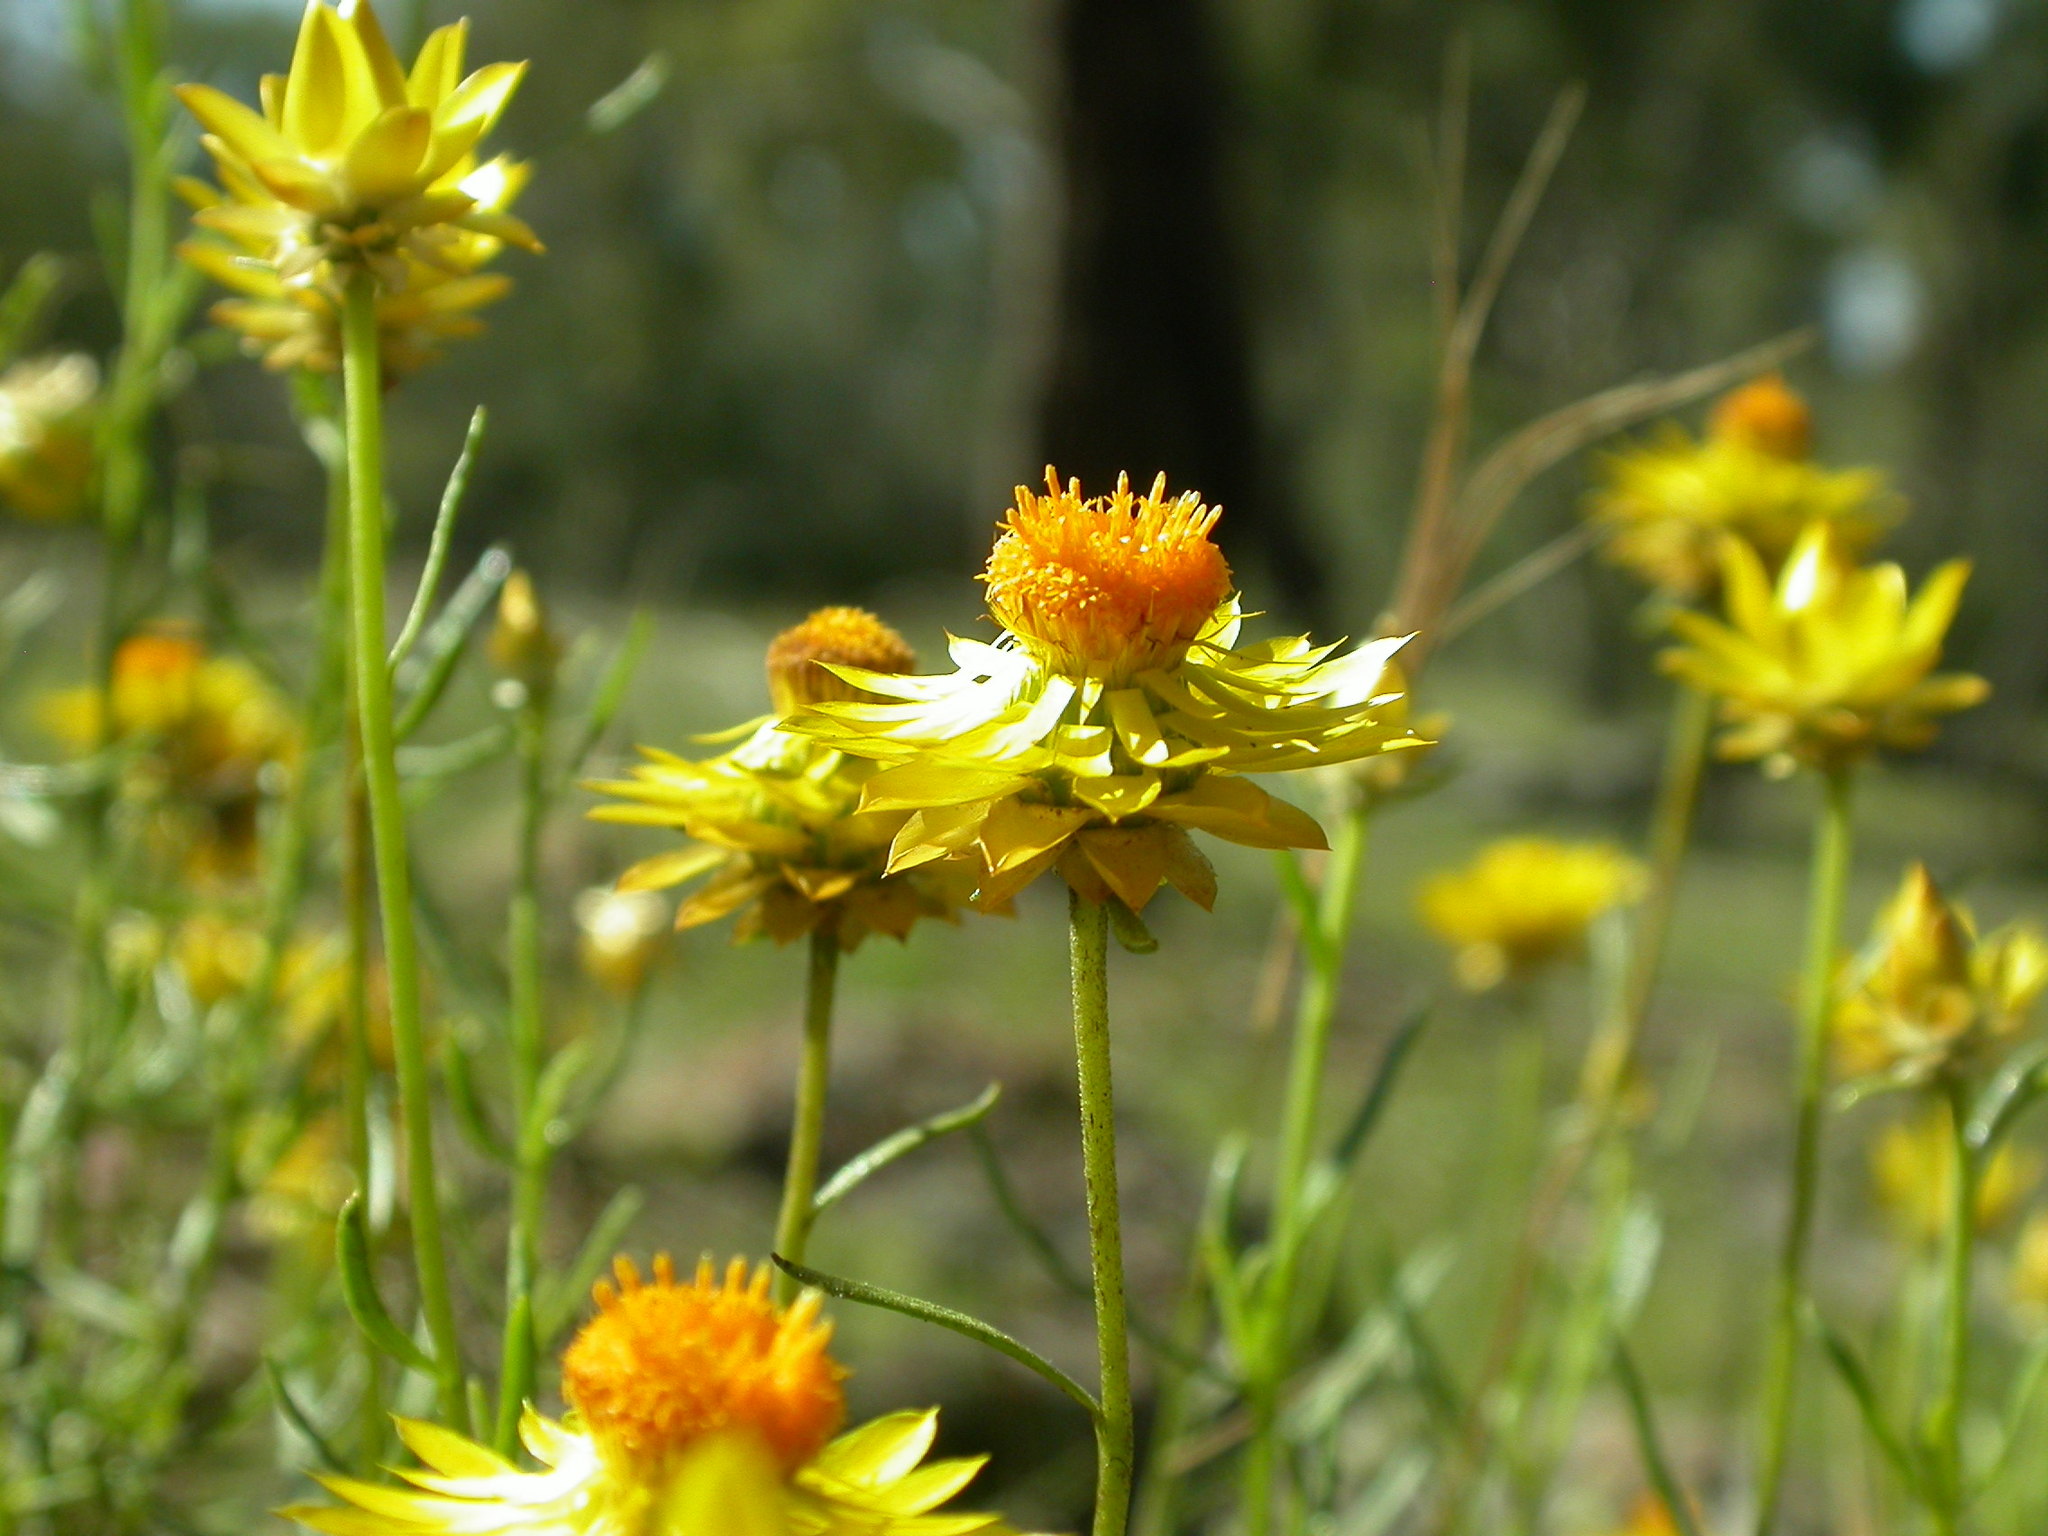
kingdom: Plantae
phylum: Tracheophyta
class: Magnoliopsida
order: Asterales
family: Asteraceae
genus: Xerochrysum
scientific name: Xerochrysum viscosum
